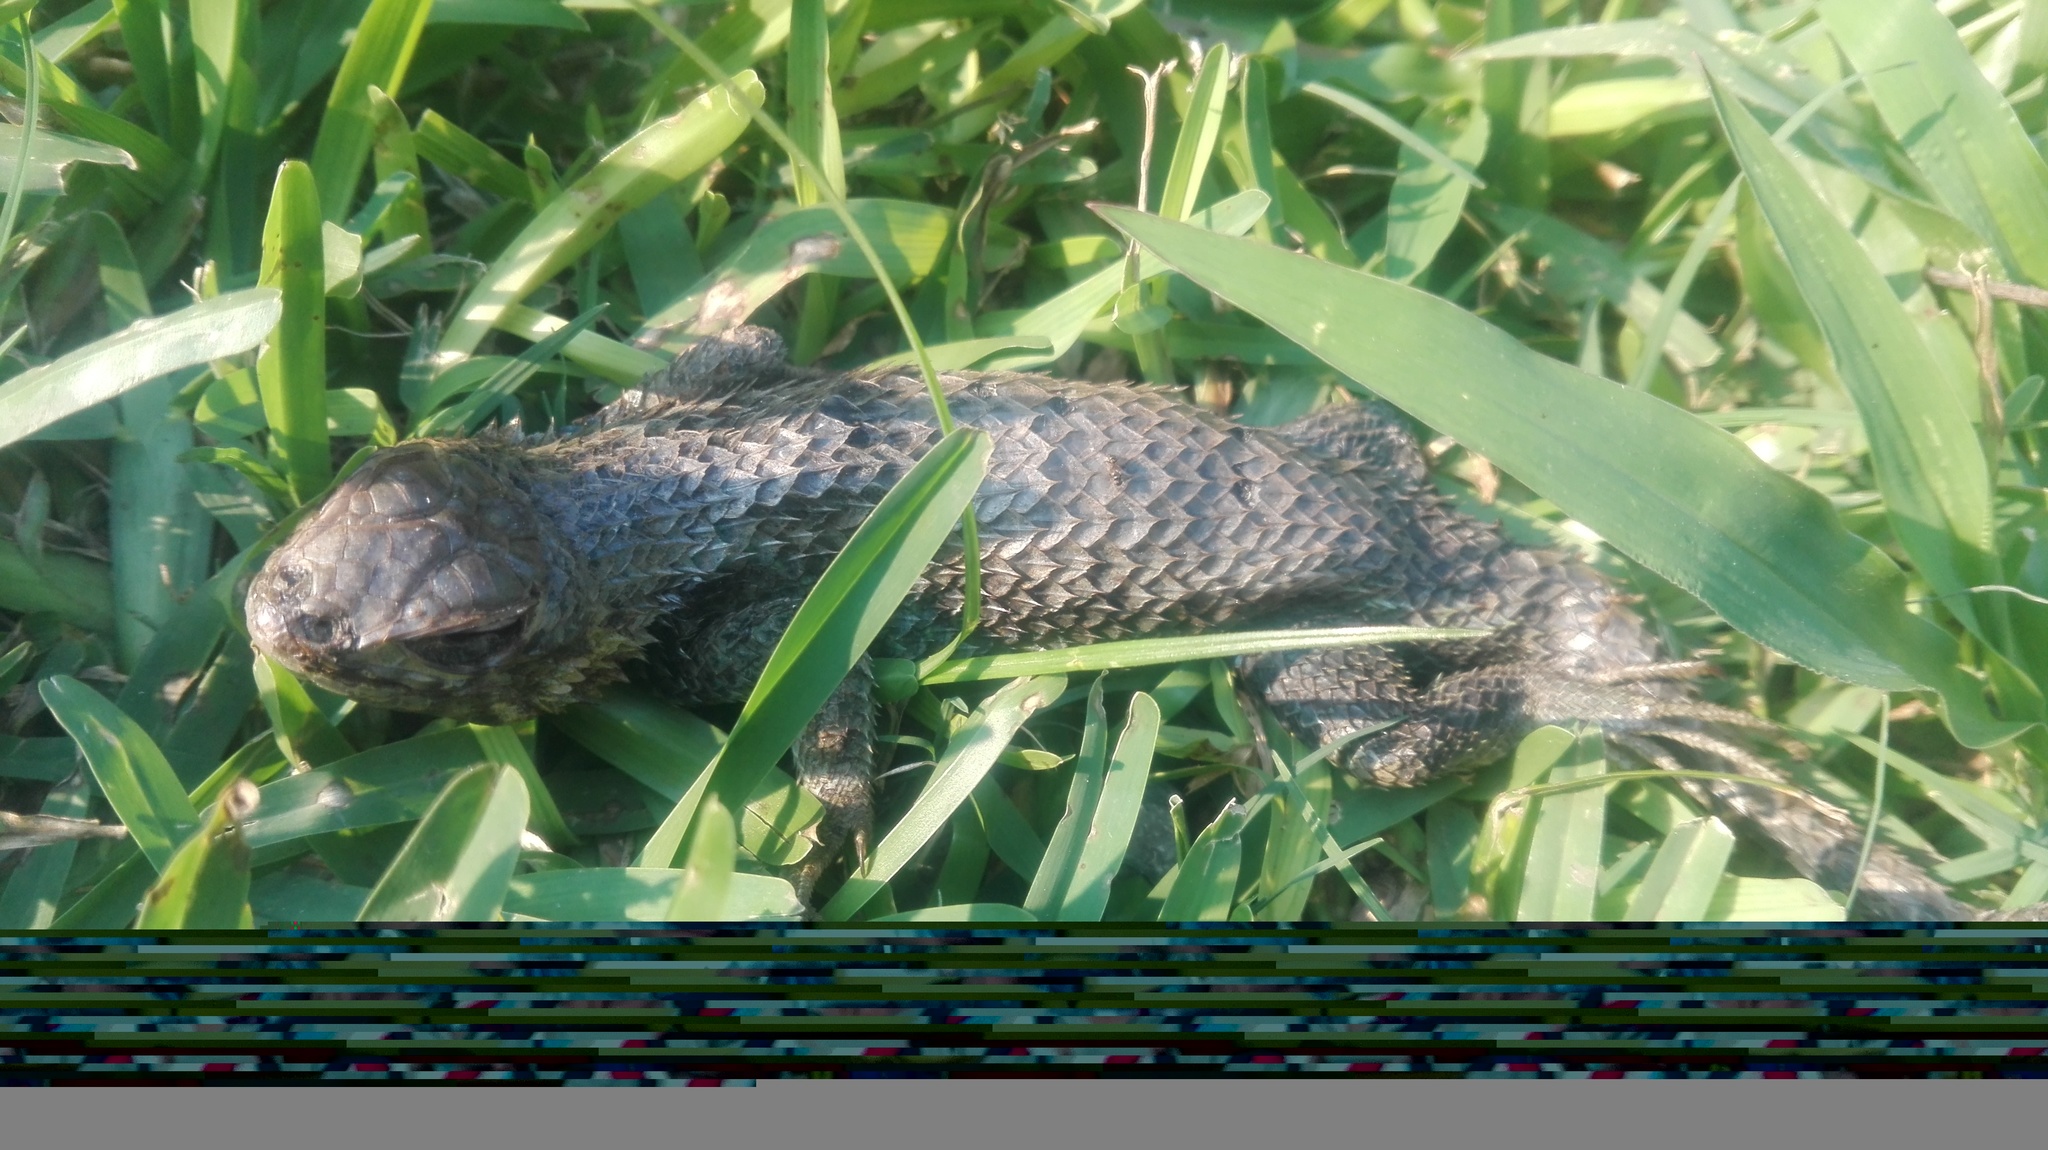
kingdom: Animalia
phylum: Chordata
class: Squamata
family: Phrynosomatidae
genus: Sceloporus
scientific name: Sceloporus horridus
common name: Few-pored rough lizard
